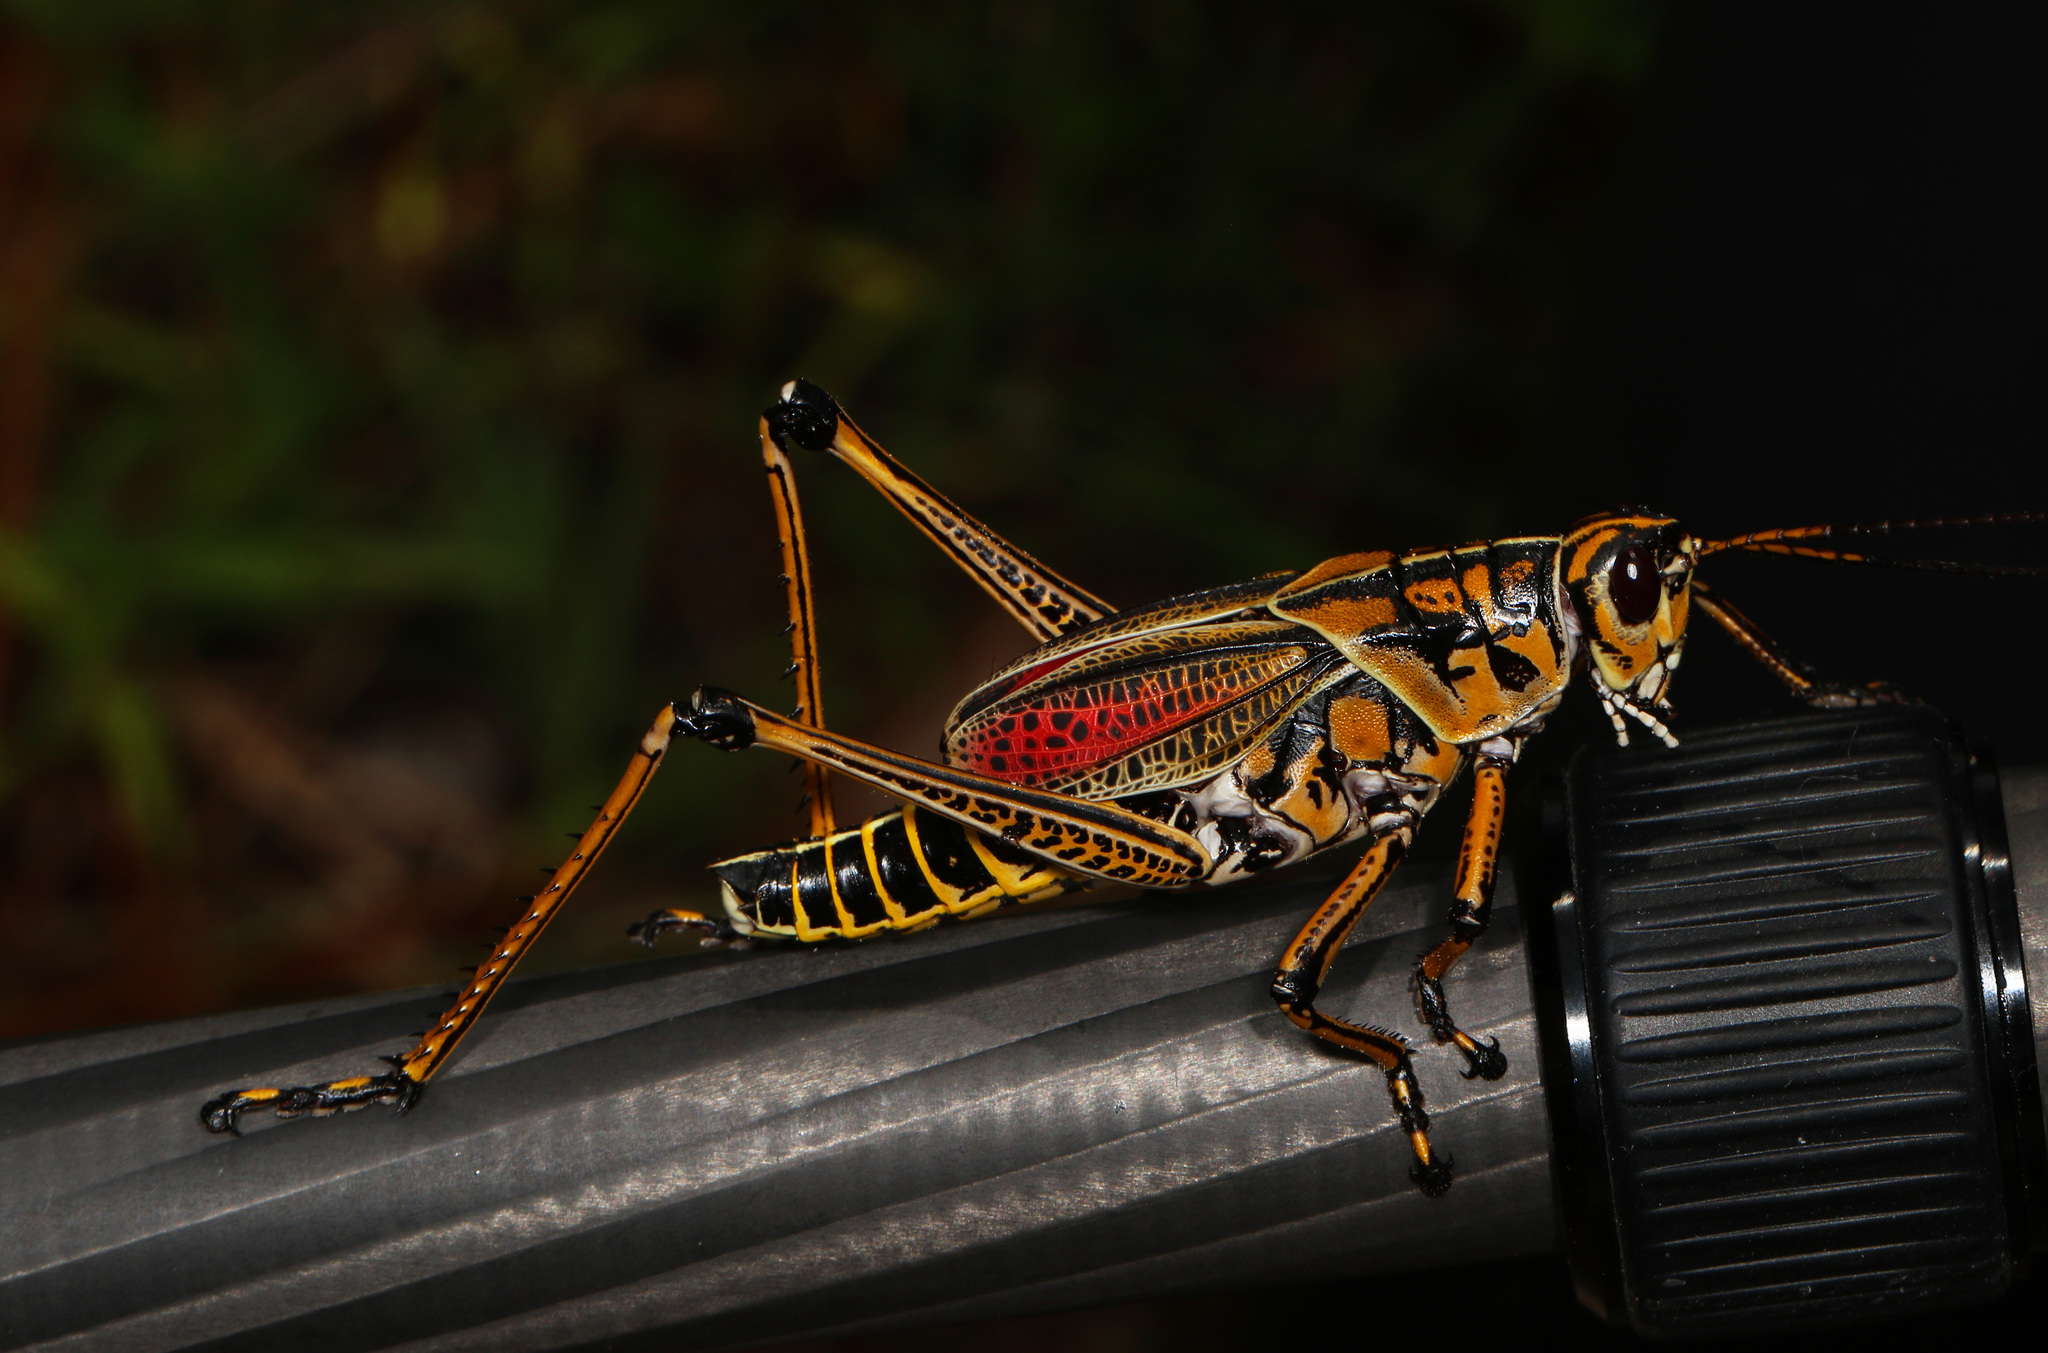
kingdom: Animalia
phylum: Arthropoda
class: Insecta
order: Orthoptera
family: Romaleidae
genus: Romalea
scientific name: Romalea microptera
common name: Eastern lubber grasshopper
